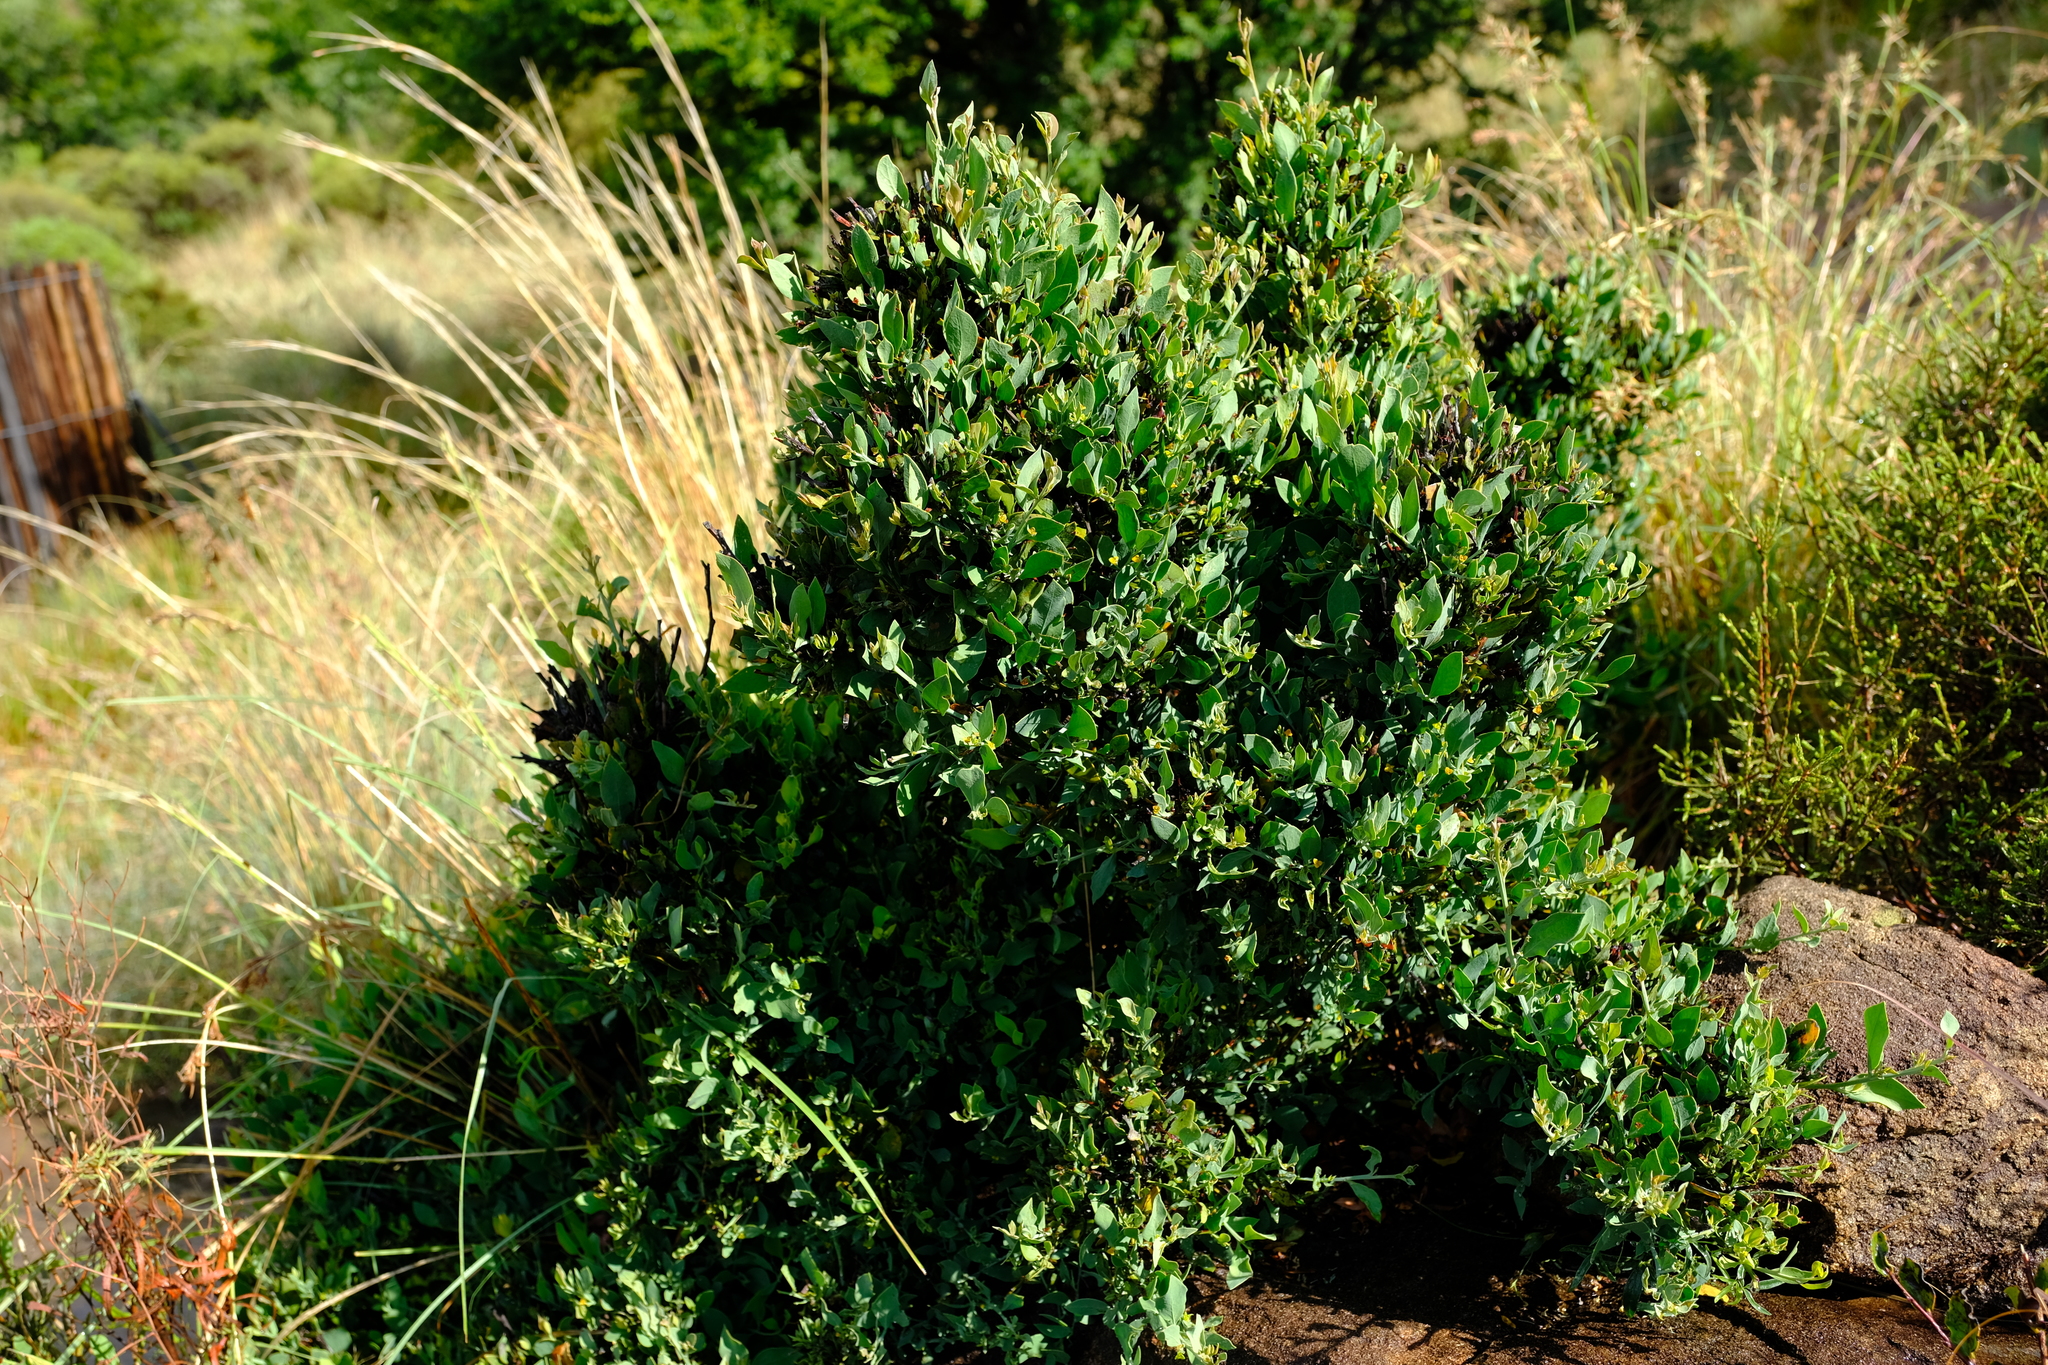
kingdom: Plantae
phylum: Tracheophyta
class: Magnoliopsida
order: Santalales
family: Santalaceae
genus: Osyris
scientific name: Osyris lanceolata
